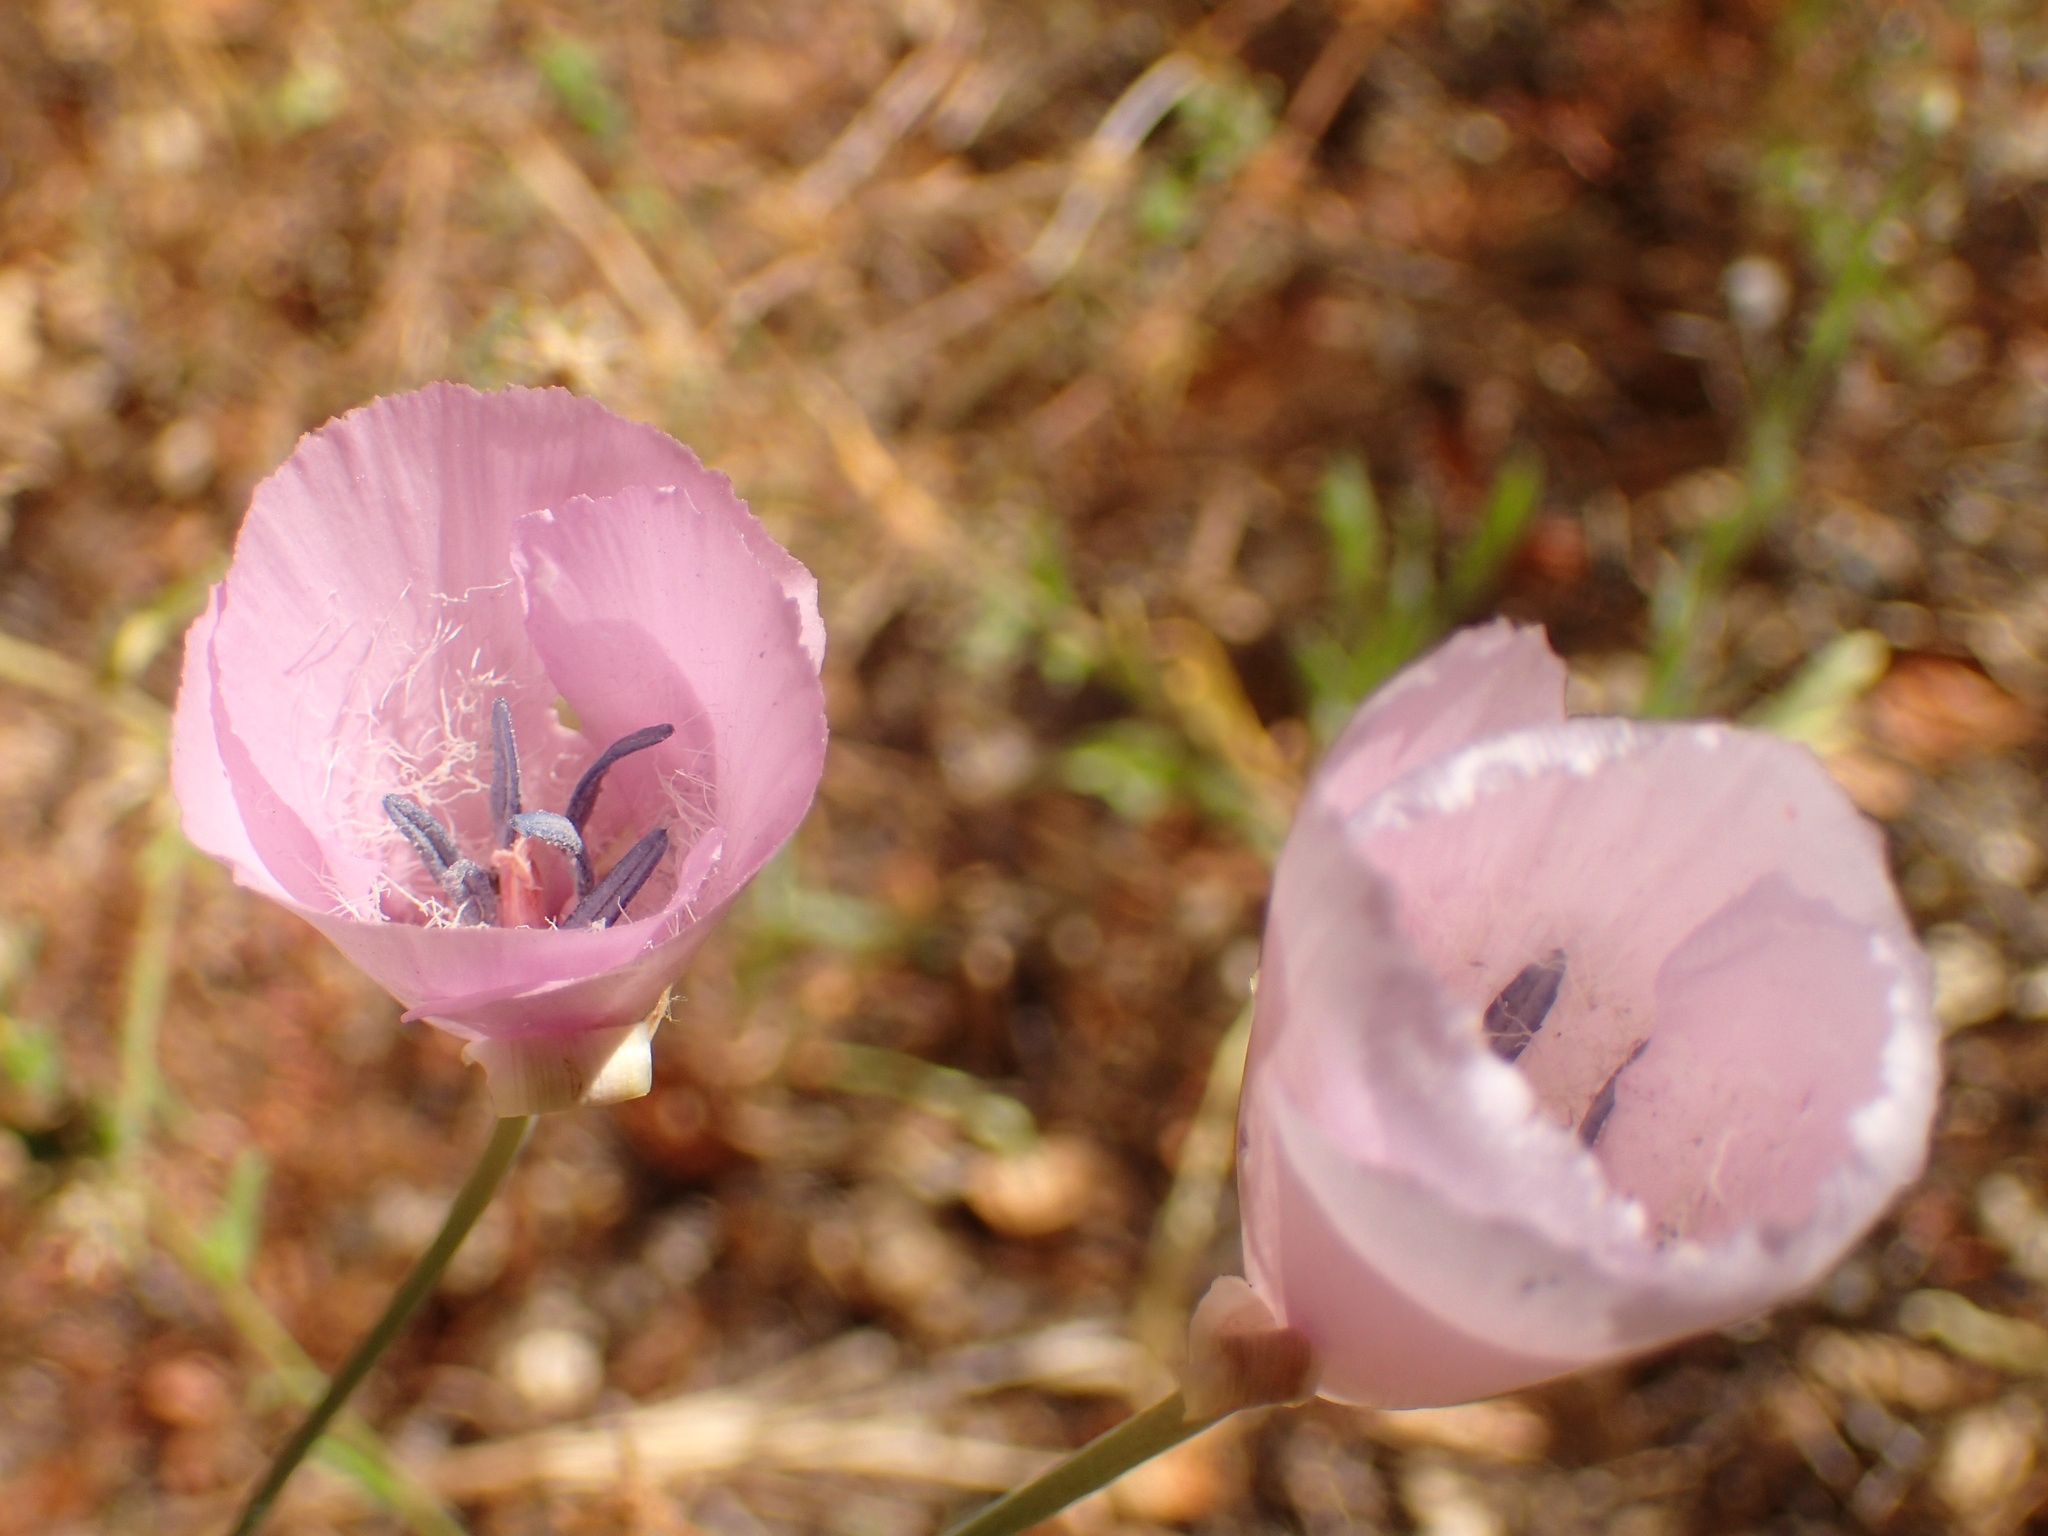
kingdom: Plantae
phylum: Tracheophyta
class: Liliopsida
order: Liliales
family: Liliaceae
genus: Calochortus
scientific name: Calochortus splendens
